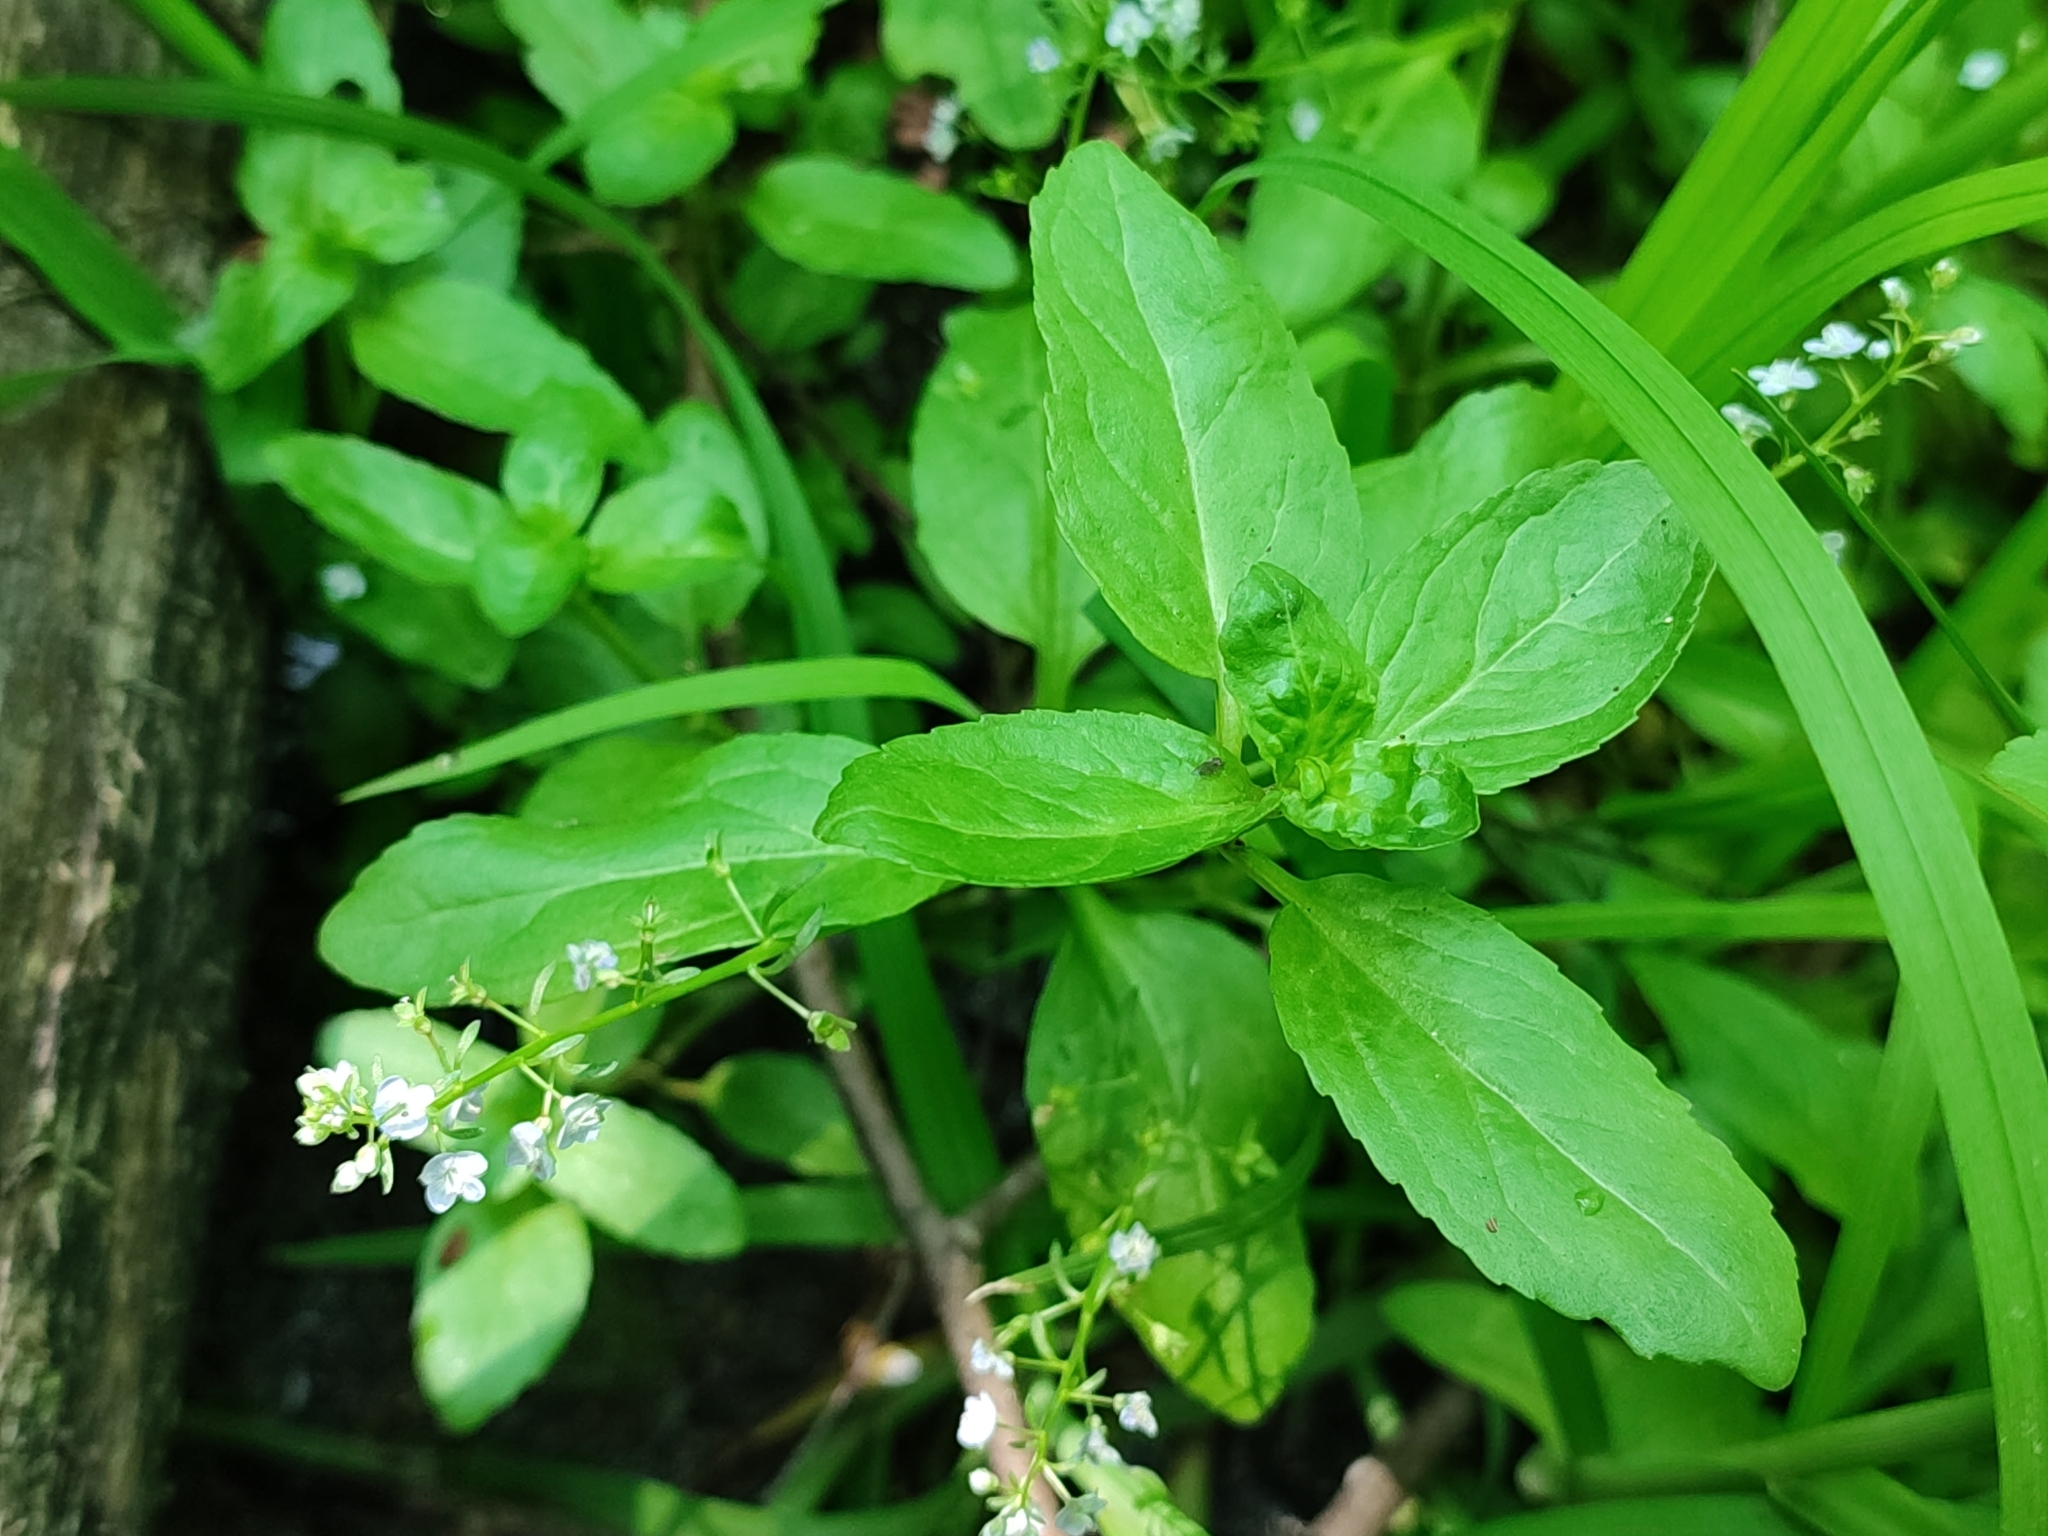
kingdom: Plantae
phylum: Tracheophyta
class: Magnoliopsida
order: Lamiales
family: Plantaginaceae
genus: Veronica
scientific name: Veronica beccabunga
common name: Brooklime
